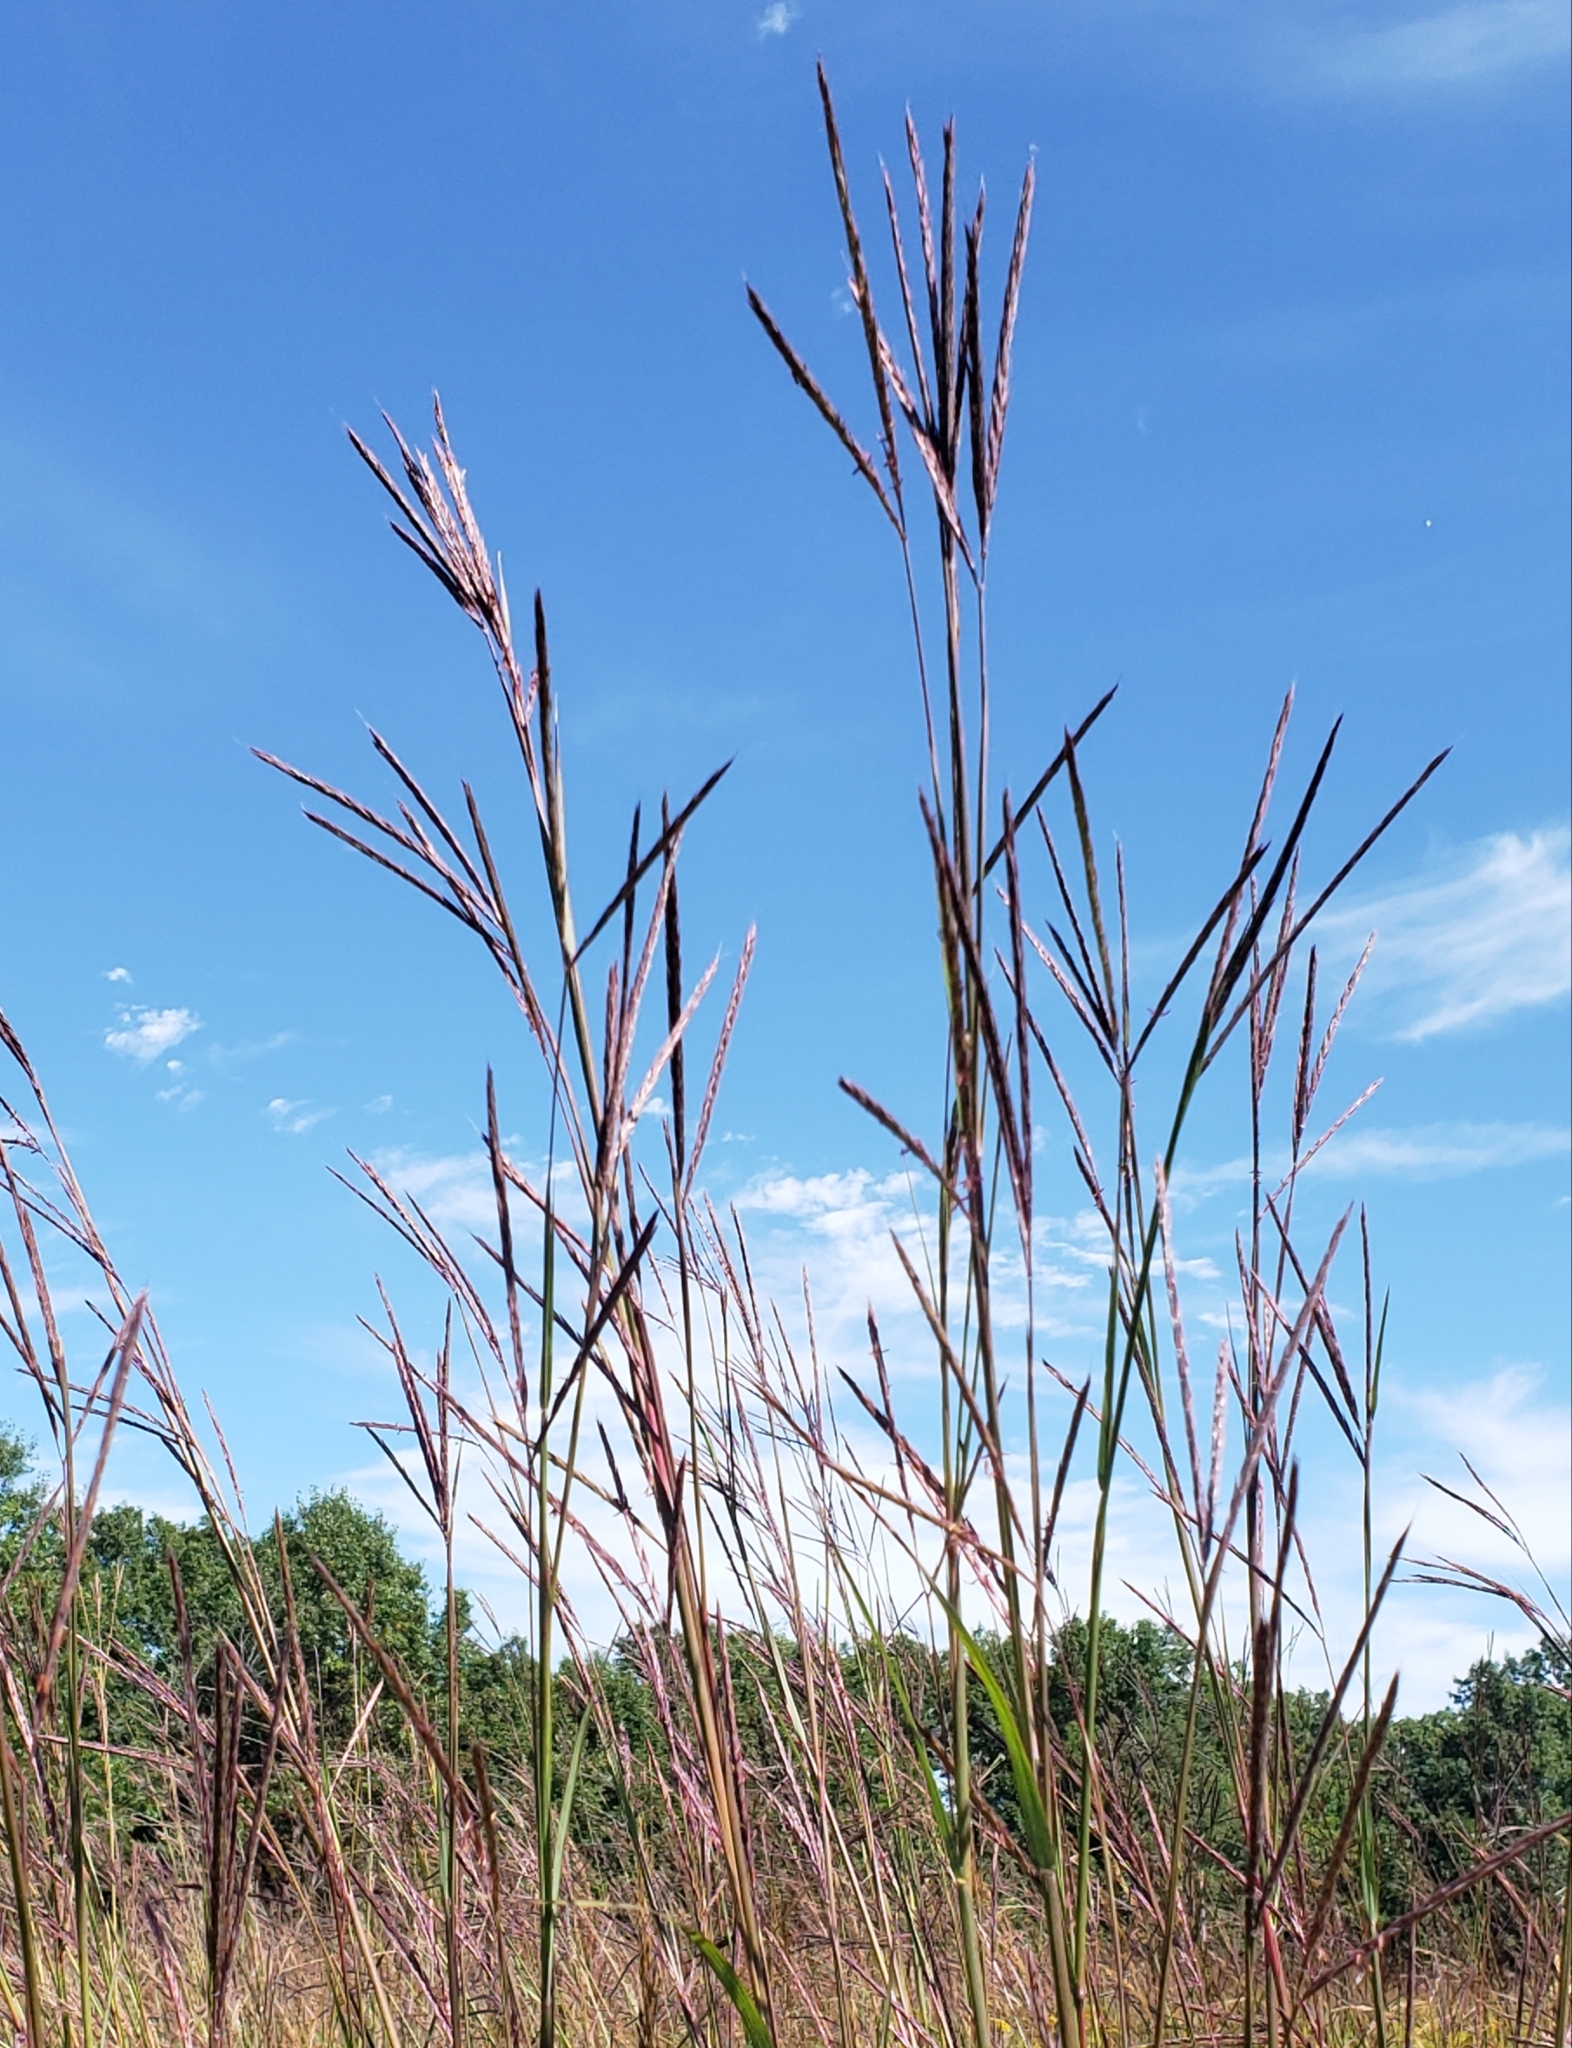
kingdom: Plantae
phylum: Tracheophyta
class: Liliopsida
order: Poales
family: Poaceae
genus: Andropogon
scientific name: Andropogon gerardi
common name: Big bluestem
